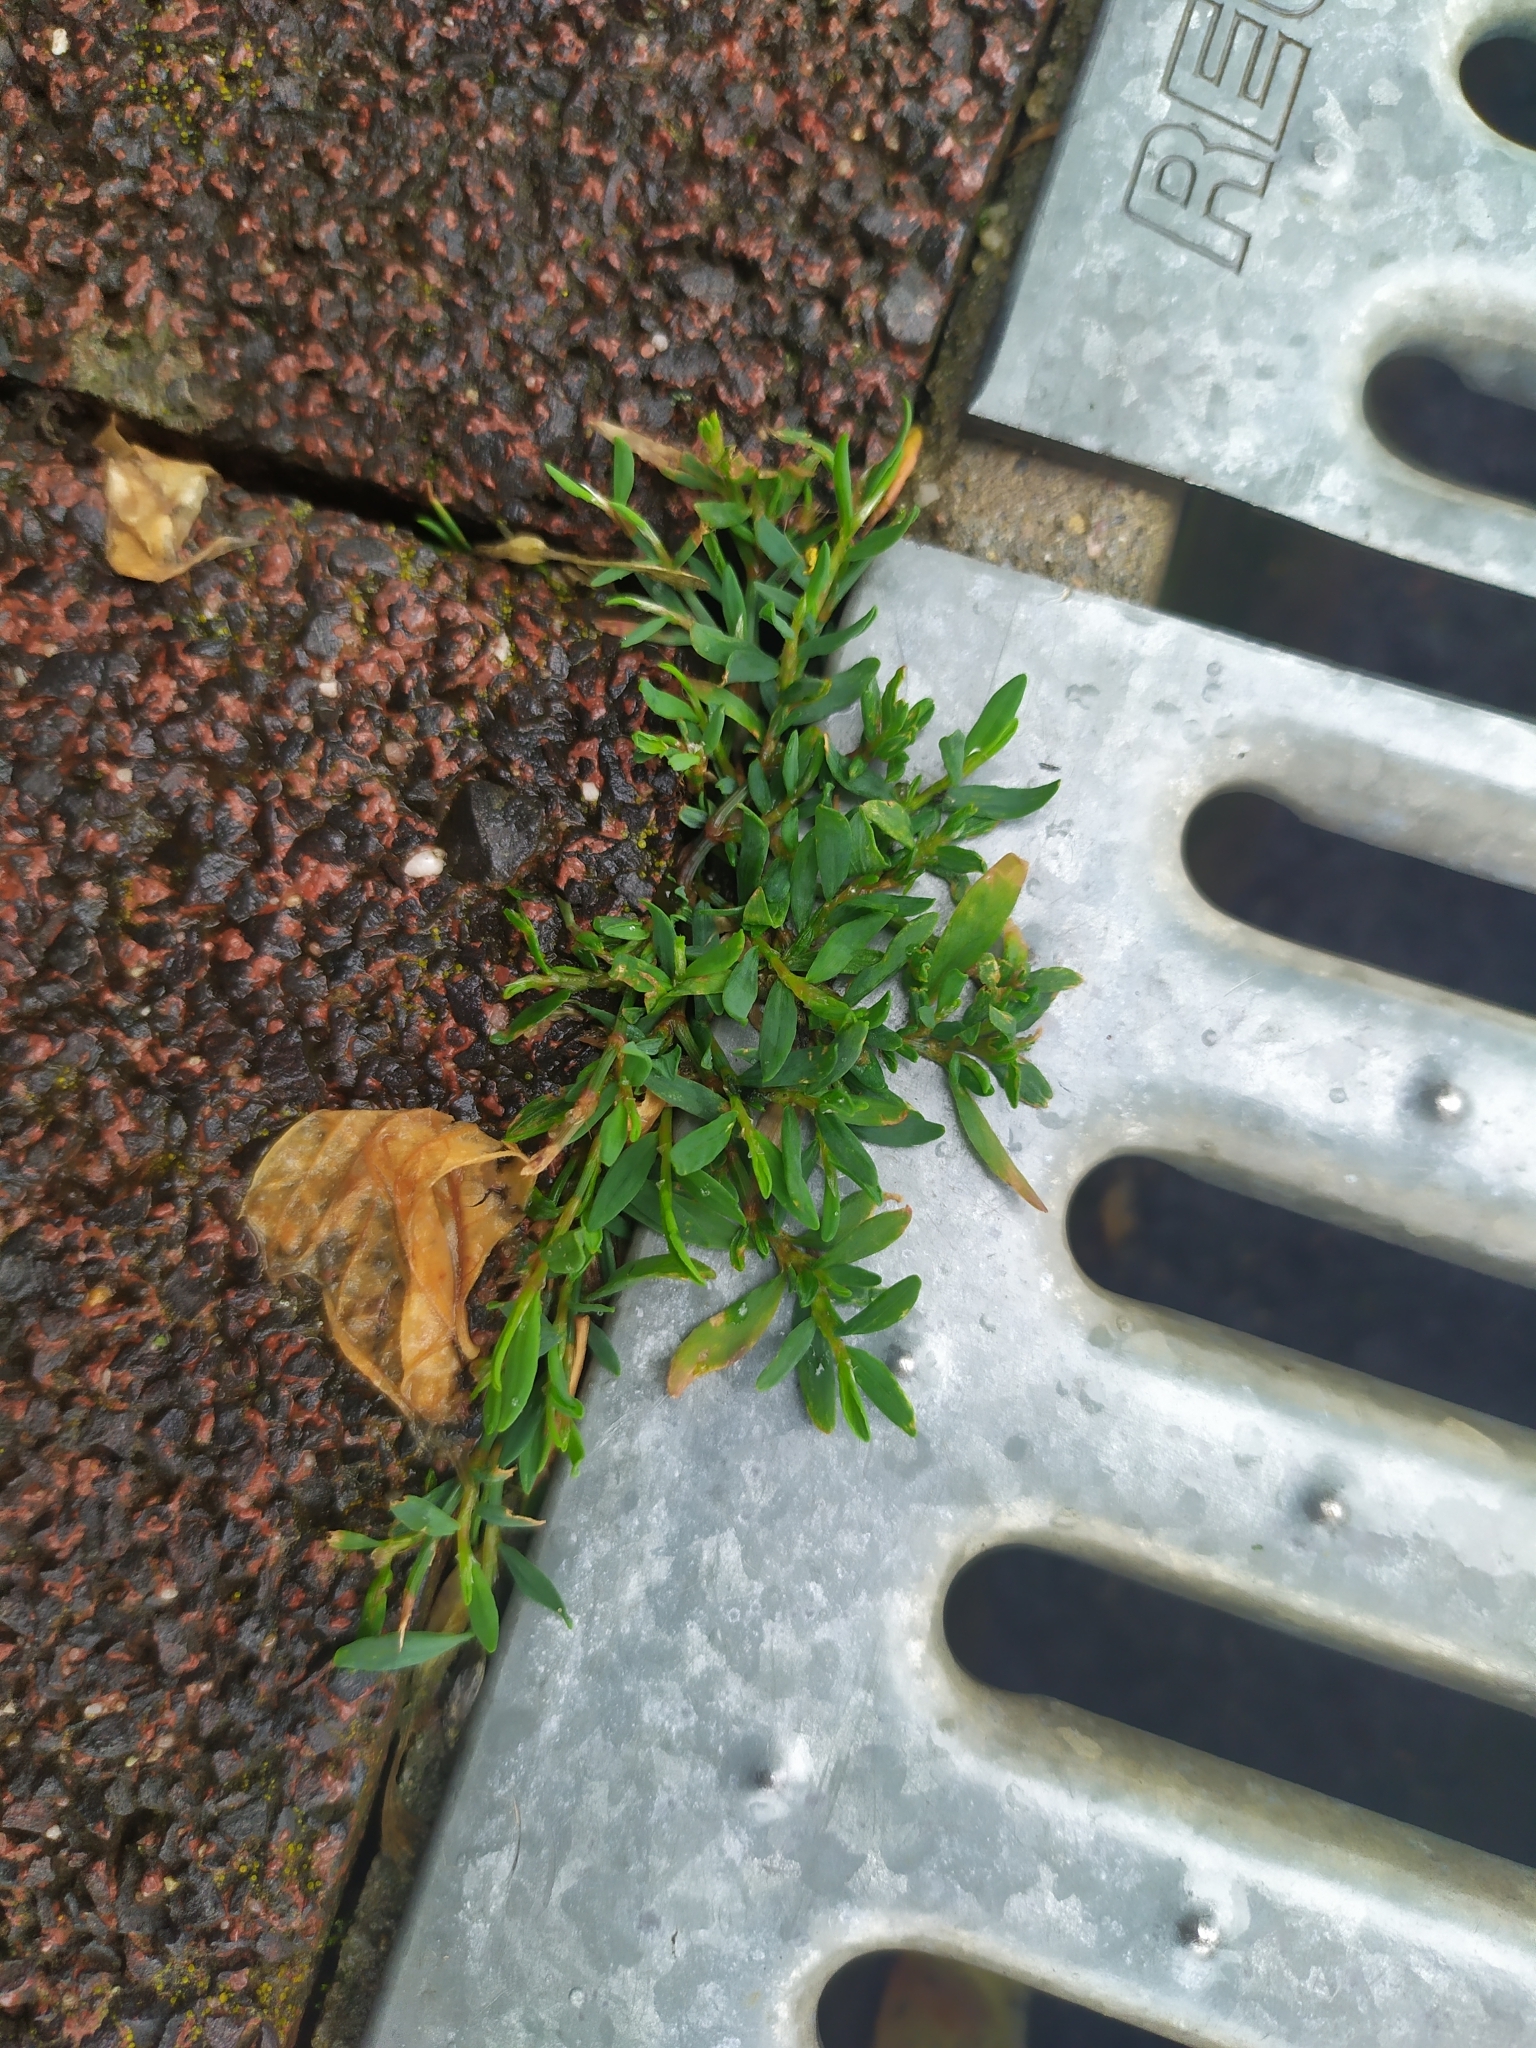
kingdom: Plantae
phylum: Tracheophyta
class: Magnoliopsida
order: Caryophyllales
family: Polygonaceae
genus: Polygonum
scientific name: Polygonum aviculare
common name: Prostrate knotweed
